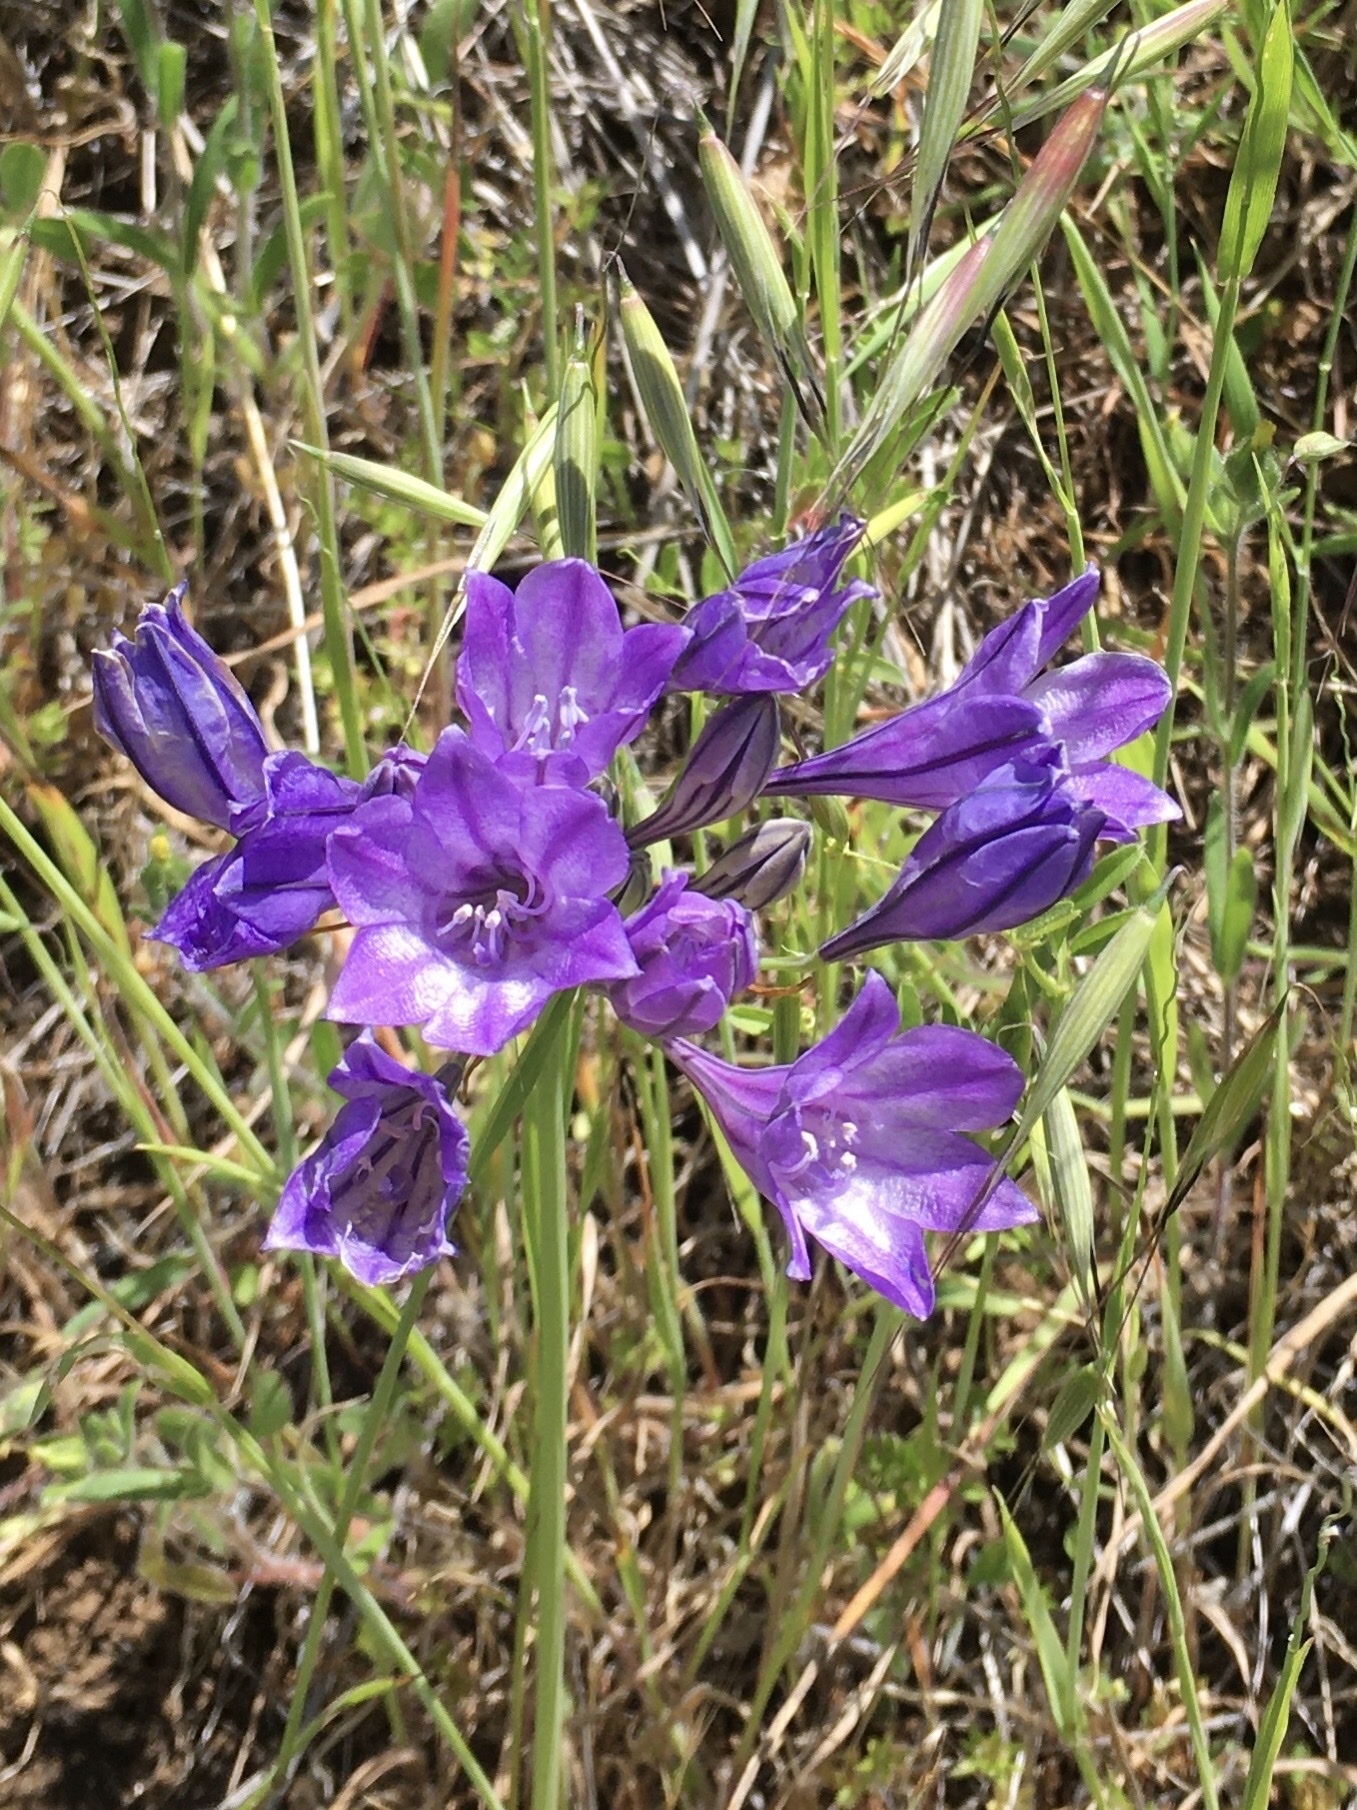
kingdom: Plantae
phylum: Tracheophyta
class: Liliopsida
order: Asparagales
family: Asparagaceae
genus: Triteleia
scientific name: Triteleia laxa
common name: Triplet-lily
